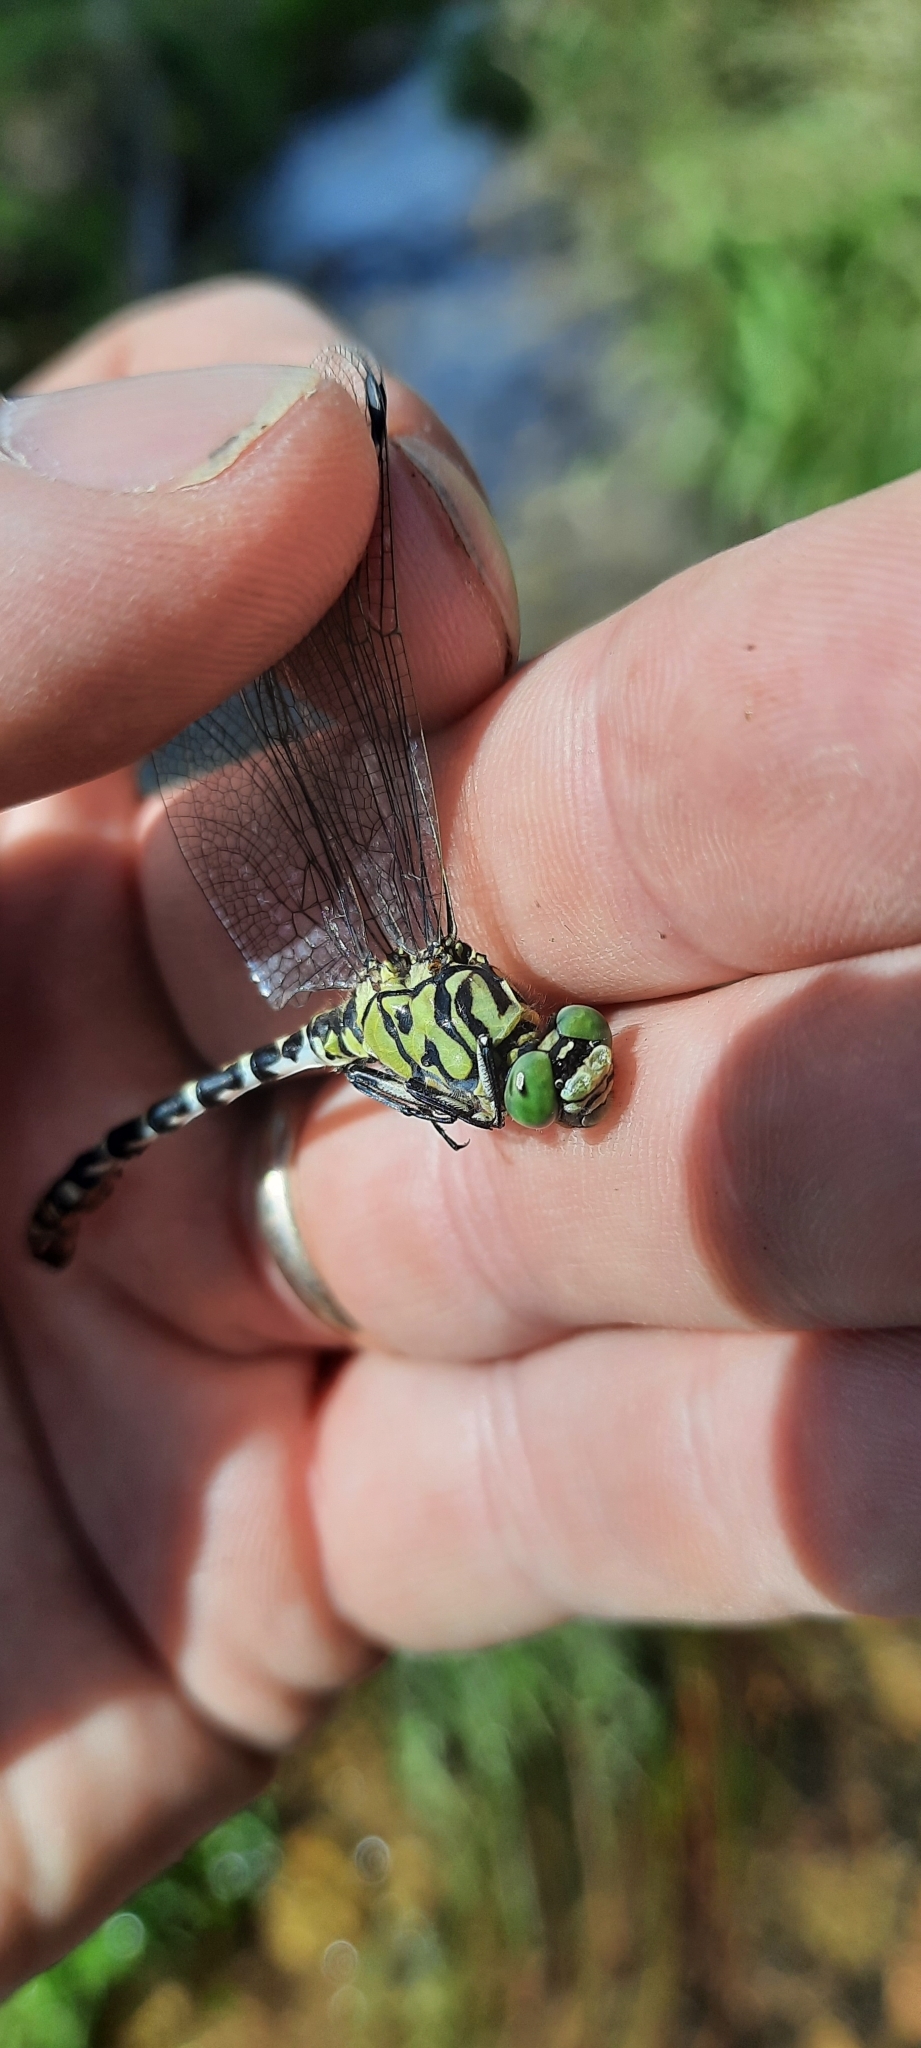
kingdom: Animalia
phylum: Arthropoda
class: Insecta
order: Odonata
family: Gomphidae
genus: Onychogomphus
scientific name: Onychogomphus forcipatus
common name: Small pincertail
